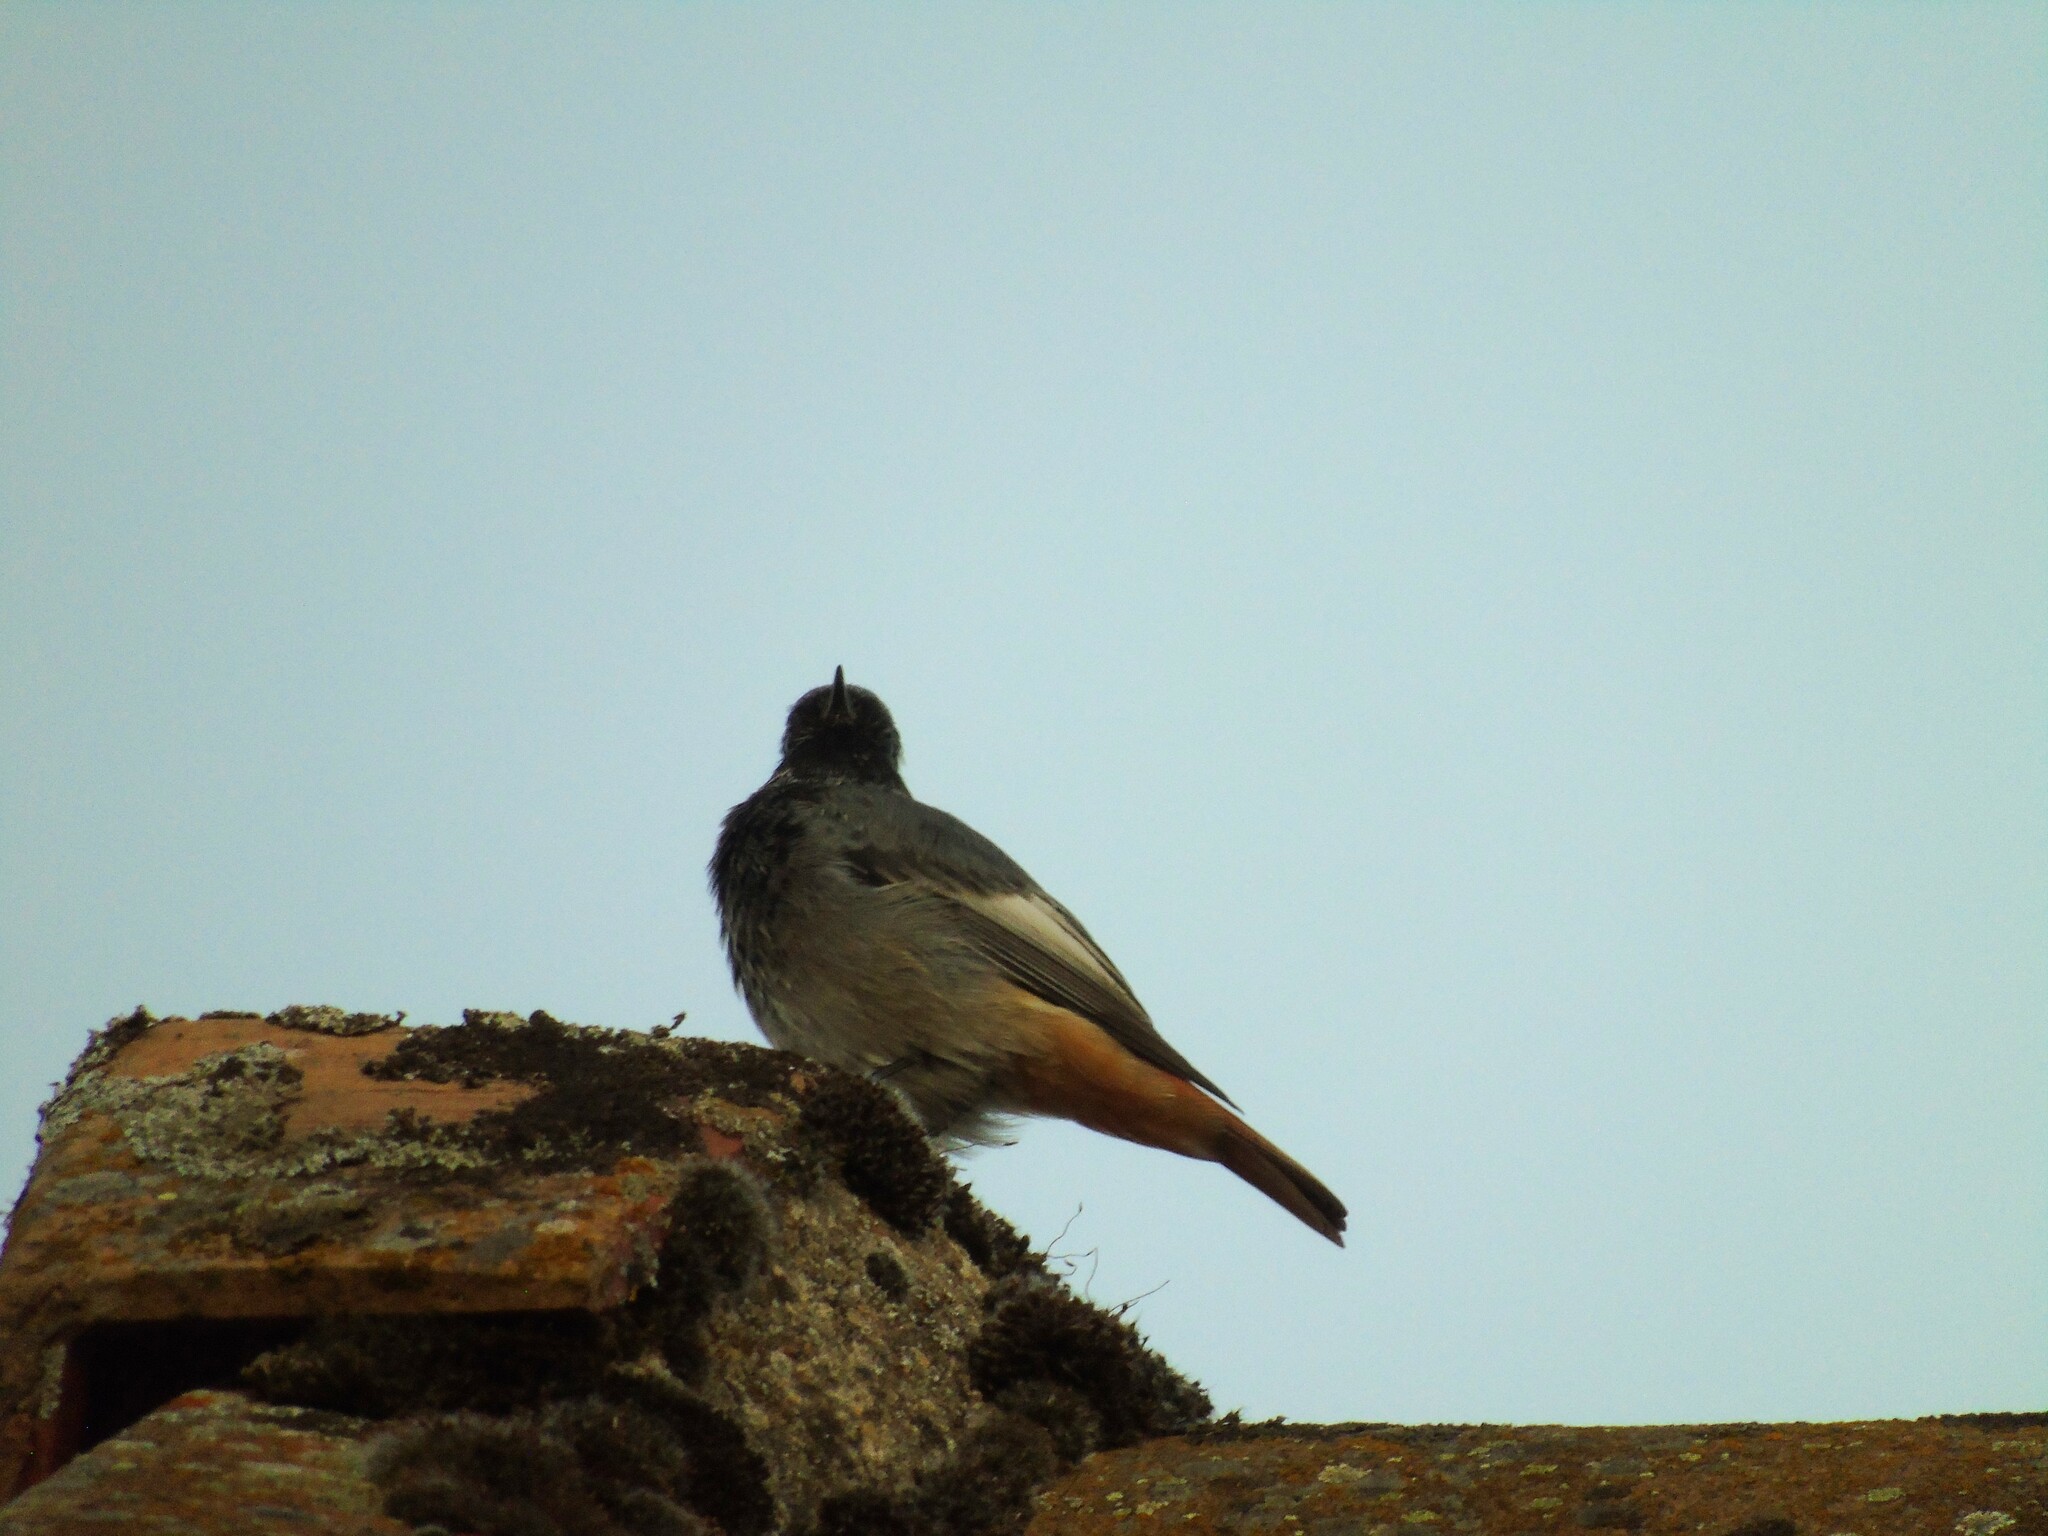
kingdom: Animalia
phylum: Chordata
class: Aves
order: Passeriformes
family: Muscicapidae
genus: Phoenicurus
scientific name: Phoenicurus ochruros
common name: Black redstart
